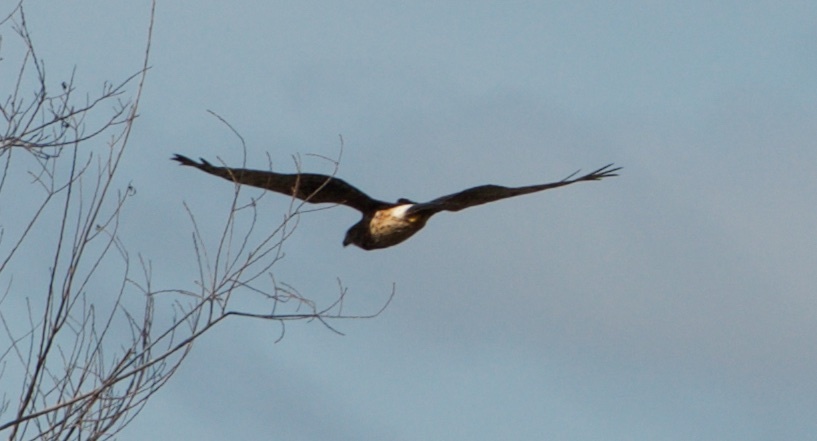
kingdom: Animalia
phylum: Chordata
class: Aves
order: Accipitriformes
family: Accipitridae
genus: Buteo
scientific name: Buteo jamaicensis
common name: Red-tailed hawk
